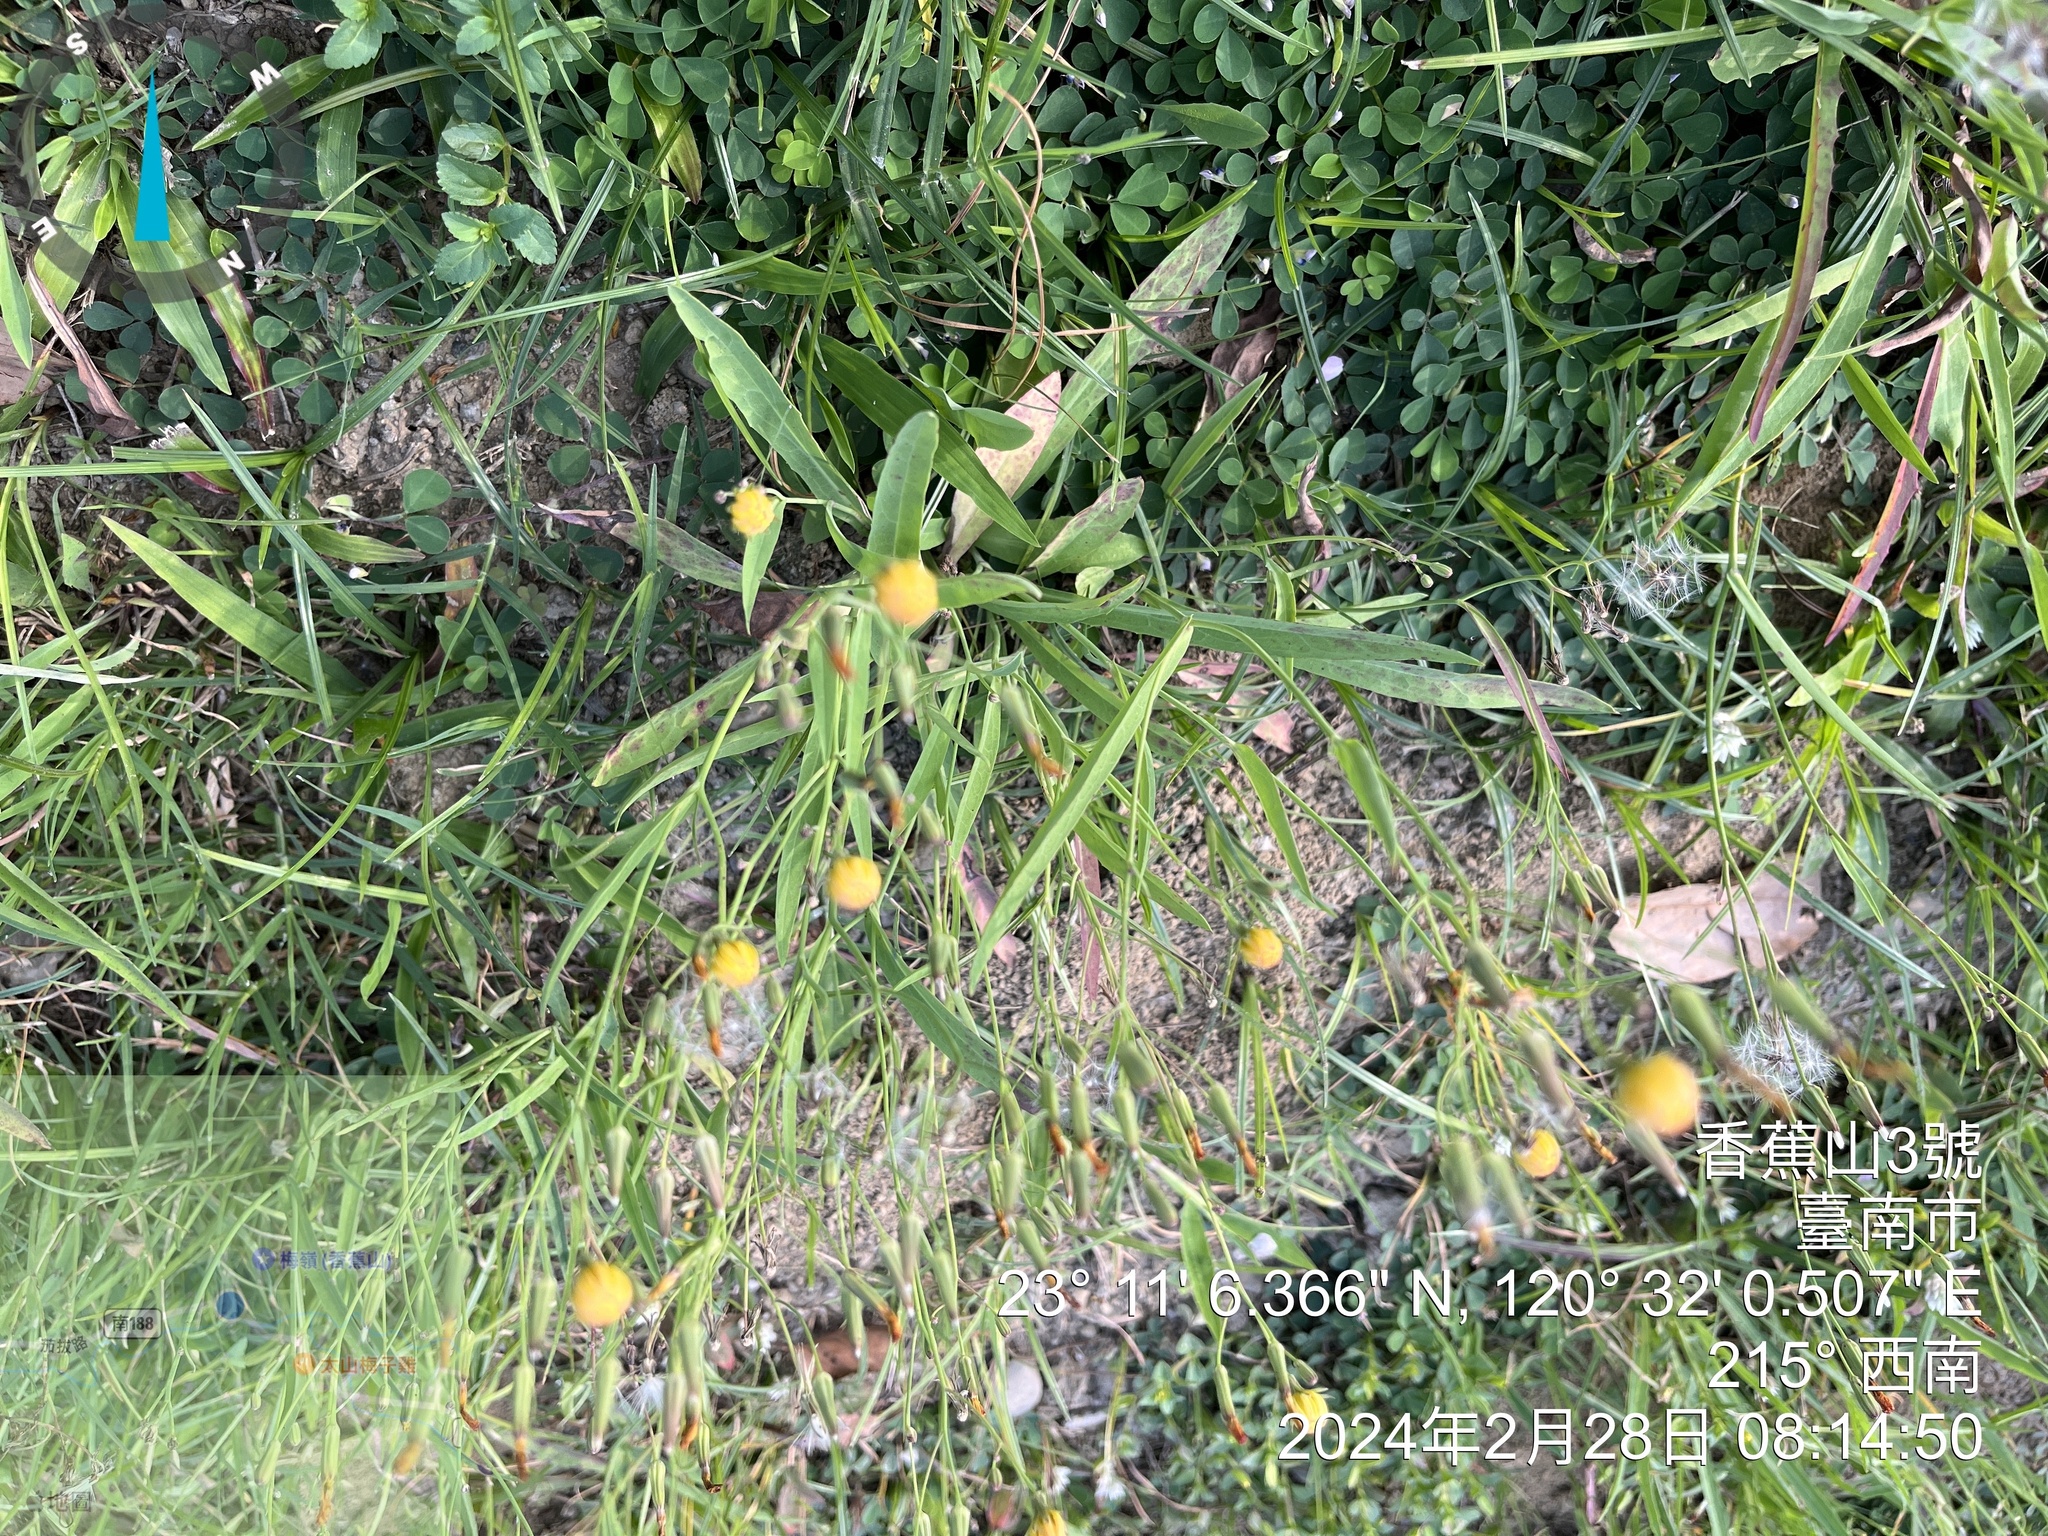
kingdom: Plantae
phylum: Tracheophyta
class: Magnoliopsida
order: Fabales
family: Fabaceae
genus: Acacia
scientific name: Acacia confusa
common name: Formosan koa
